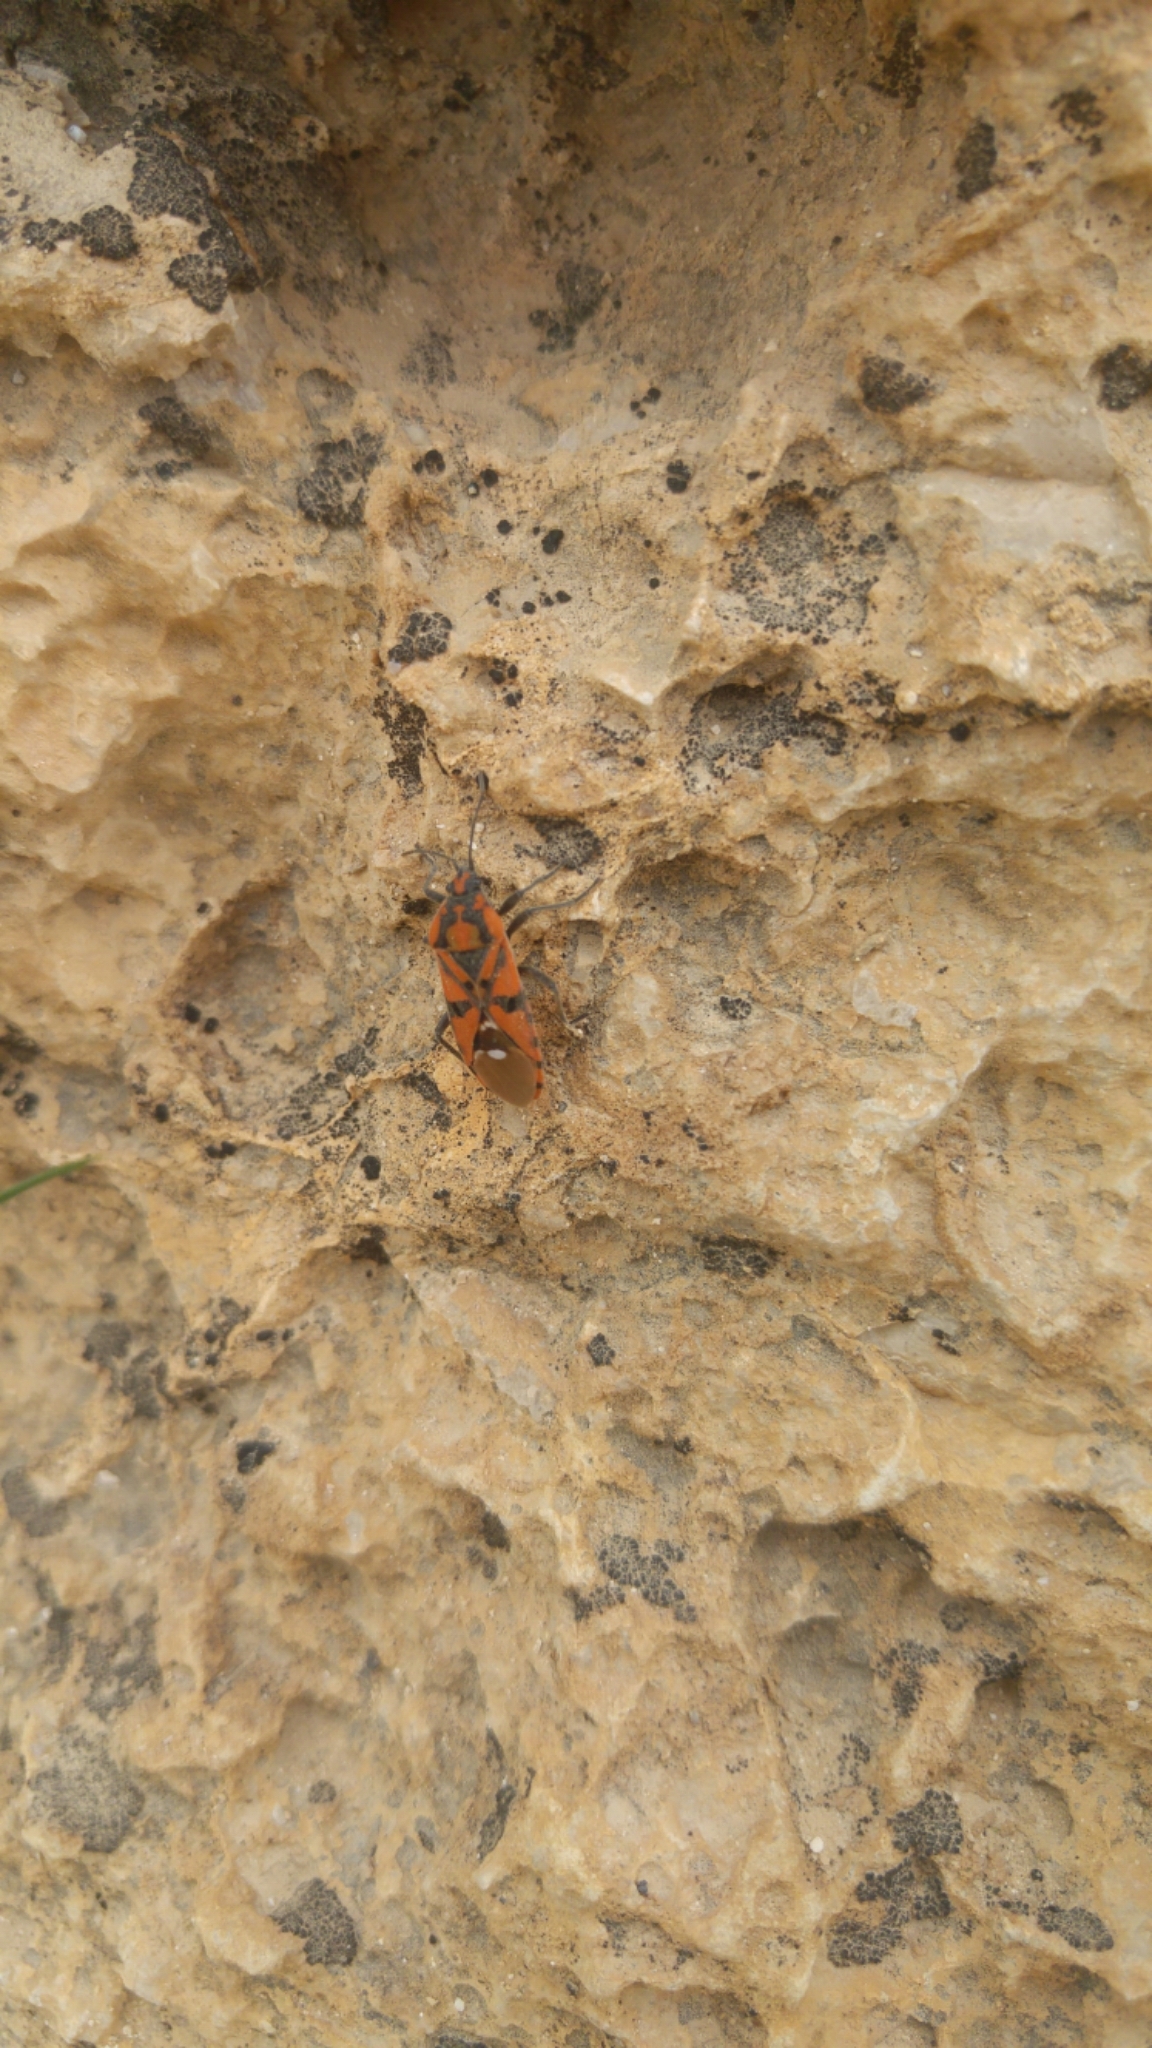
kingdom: Animalia
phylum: Arthropoda
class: Insecta
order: Hemiptera
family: Lygaeidae
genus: Spilostethus
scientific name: Spilostethus pandurus
